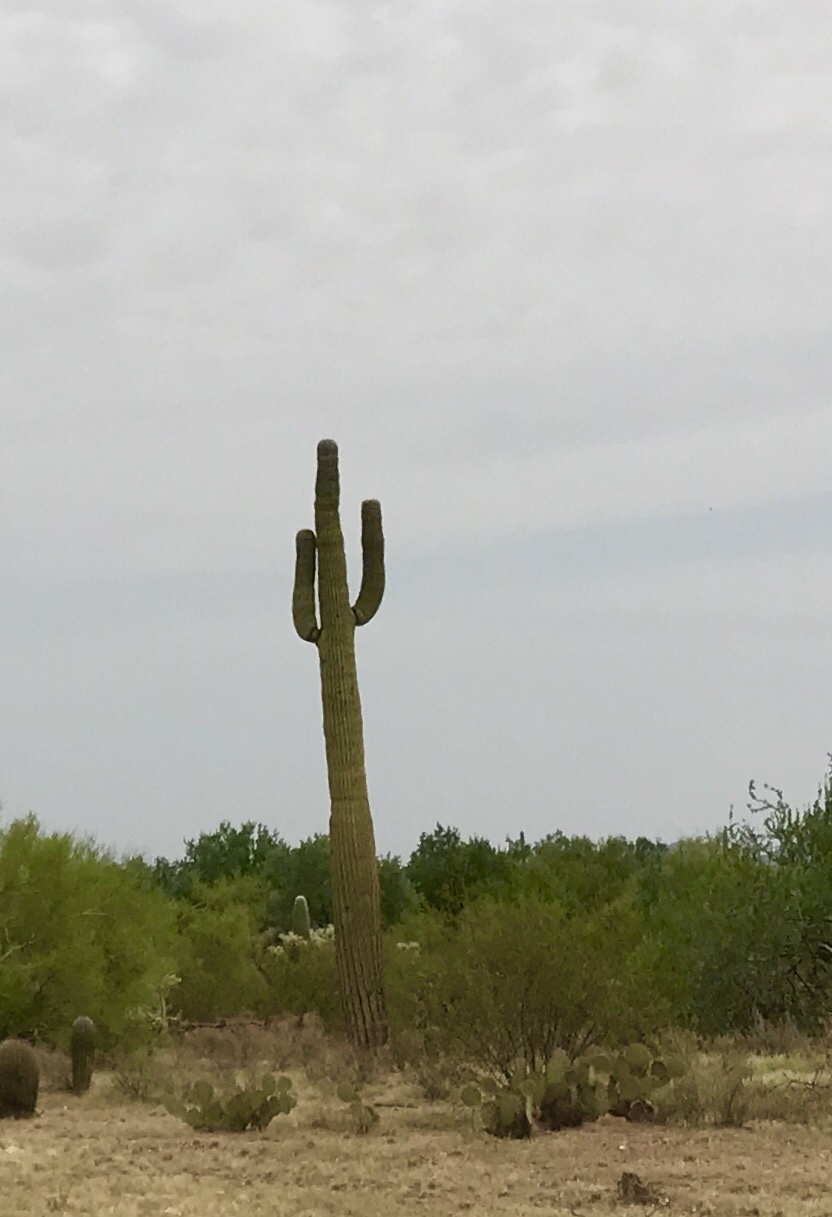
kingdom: Plantae
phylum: Tracheophyta
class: Magnoliopsida
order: Caryophyllales
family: Cactaceae
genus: Carnegiea
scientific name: Carnegiea gigantea
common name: Saguaro
